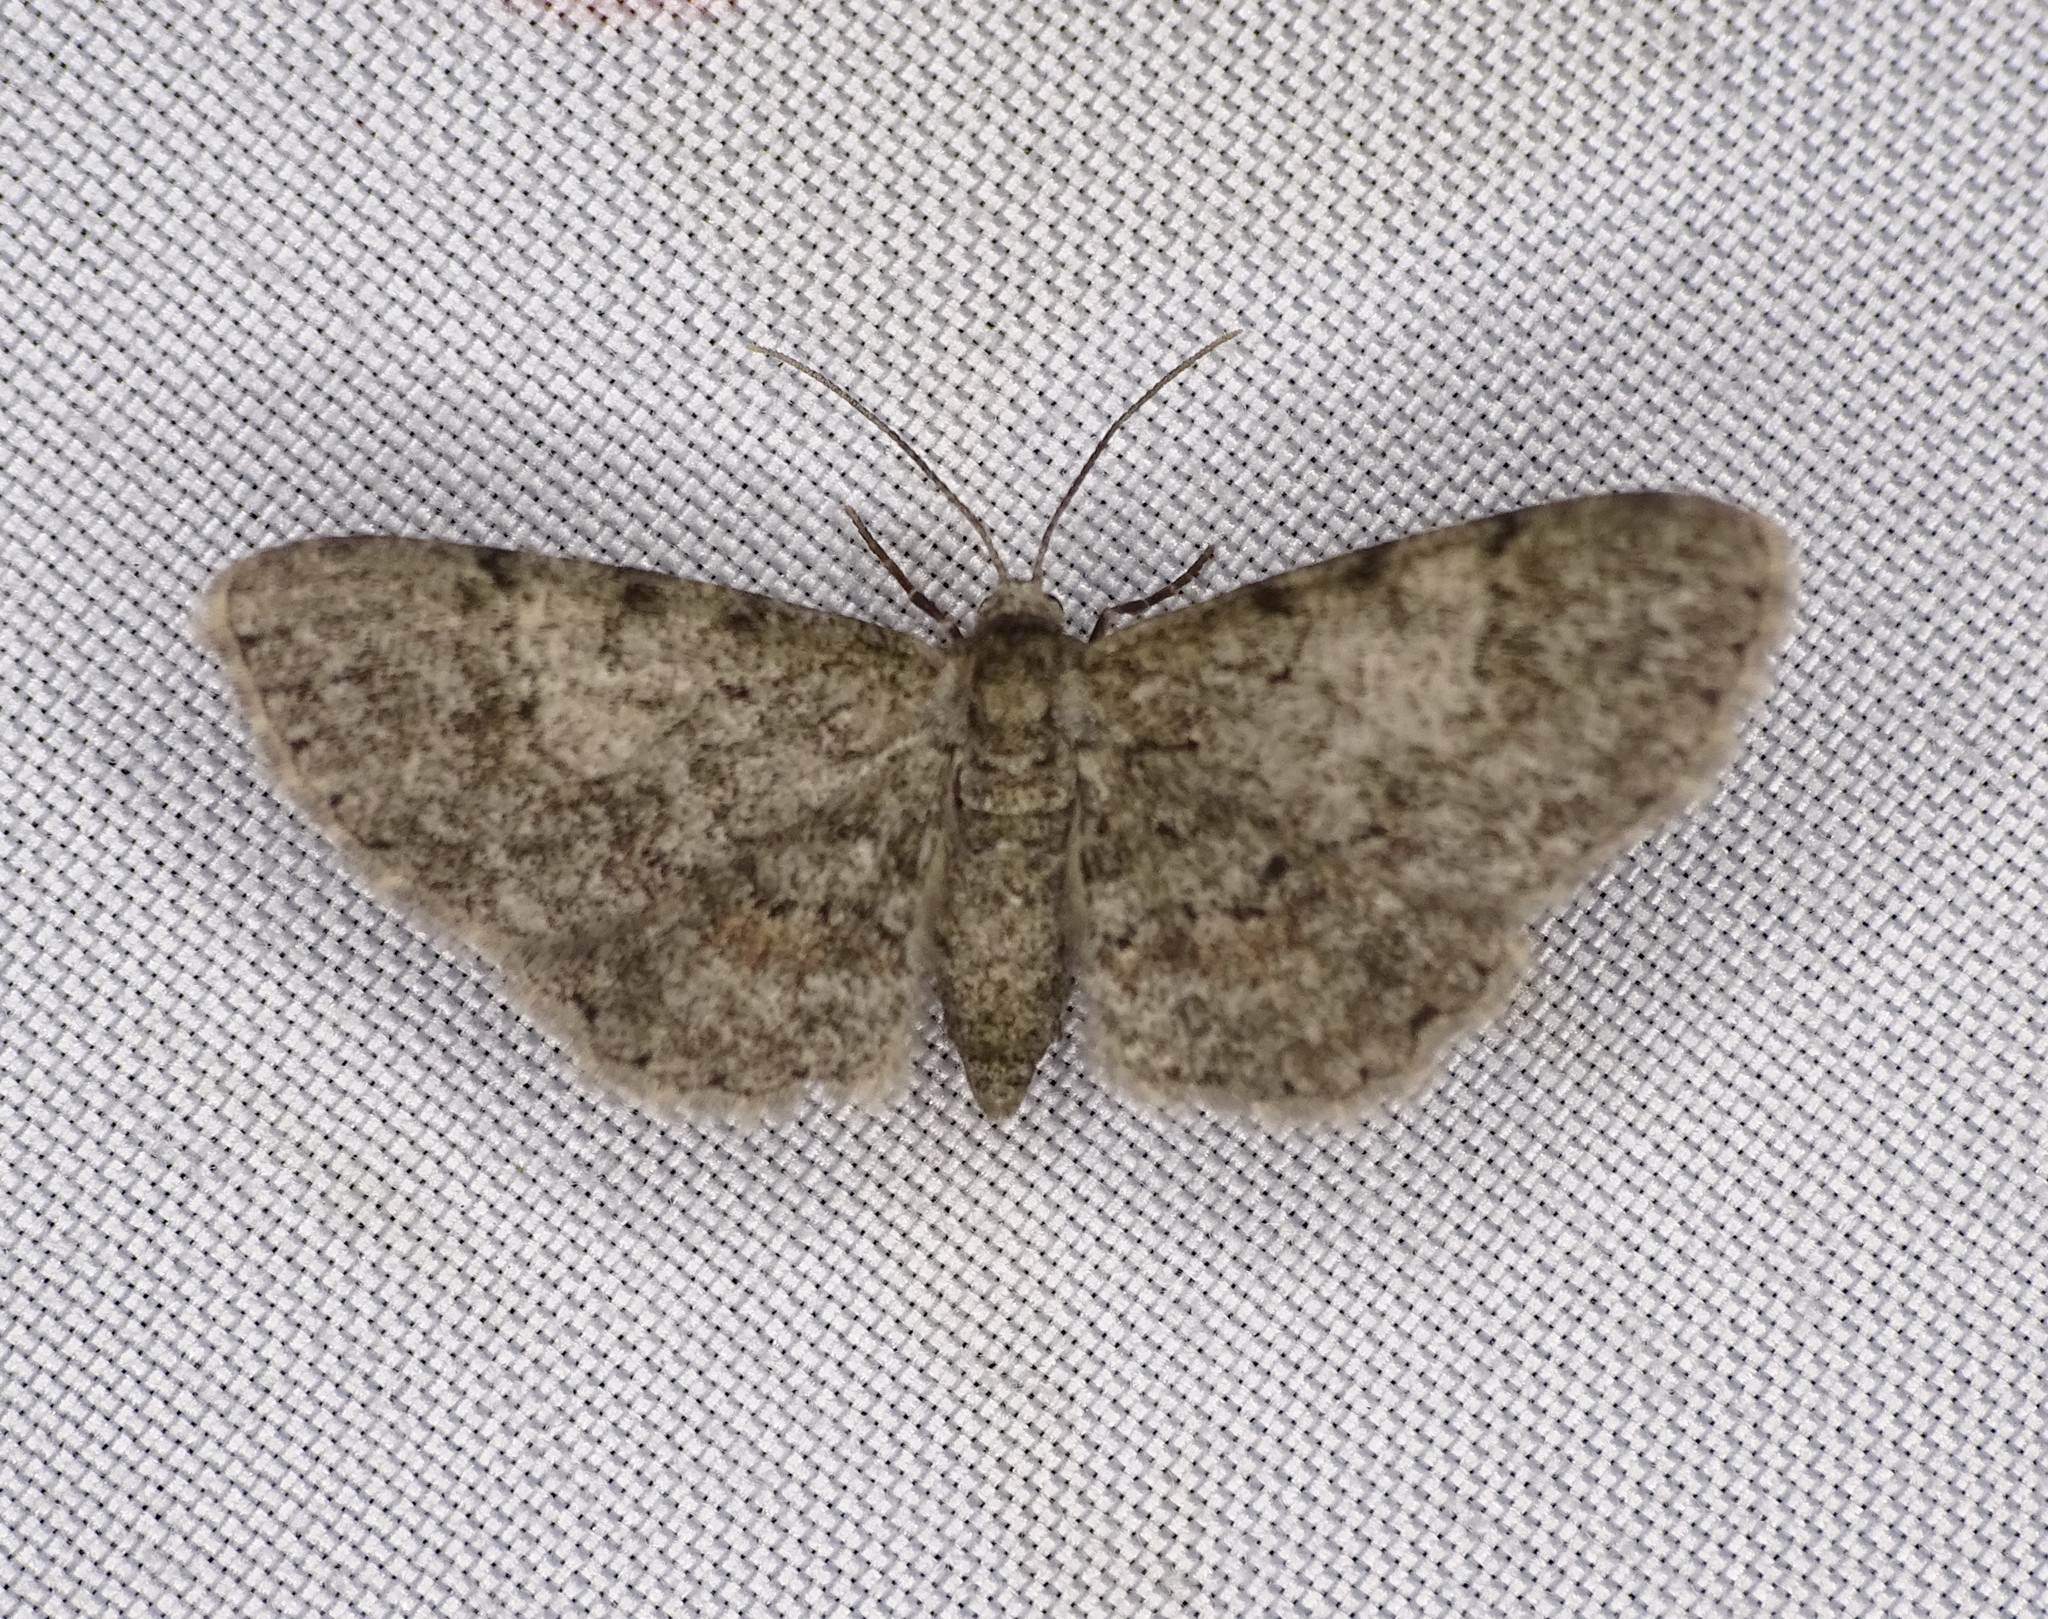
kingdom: Animalia
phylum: Arthropoda
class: Insecta
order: Lepidoptera
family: Geometridae
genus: Glenoides
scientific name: Glenoides texanaria
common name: Texas gray
